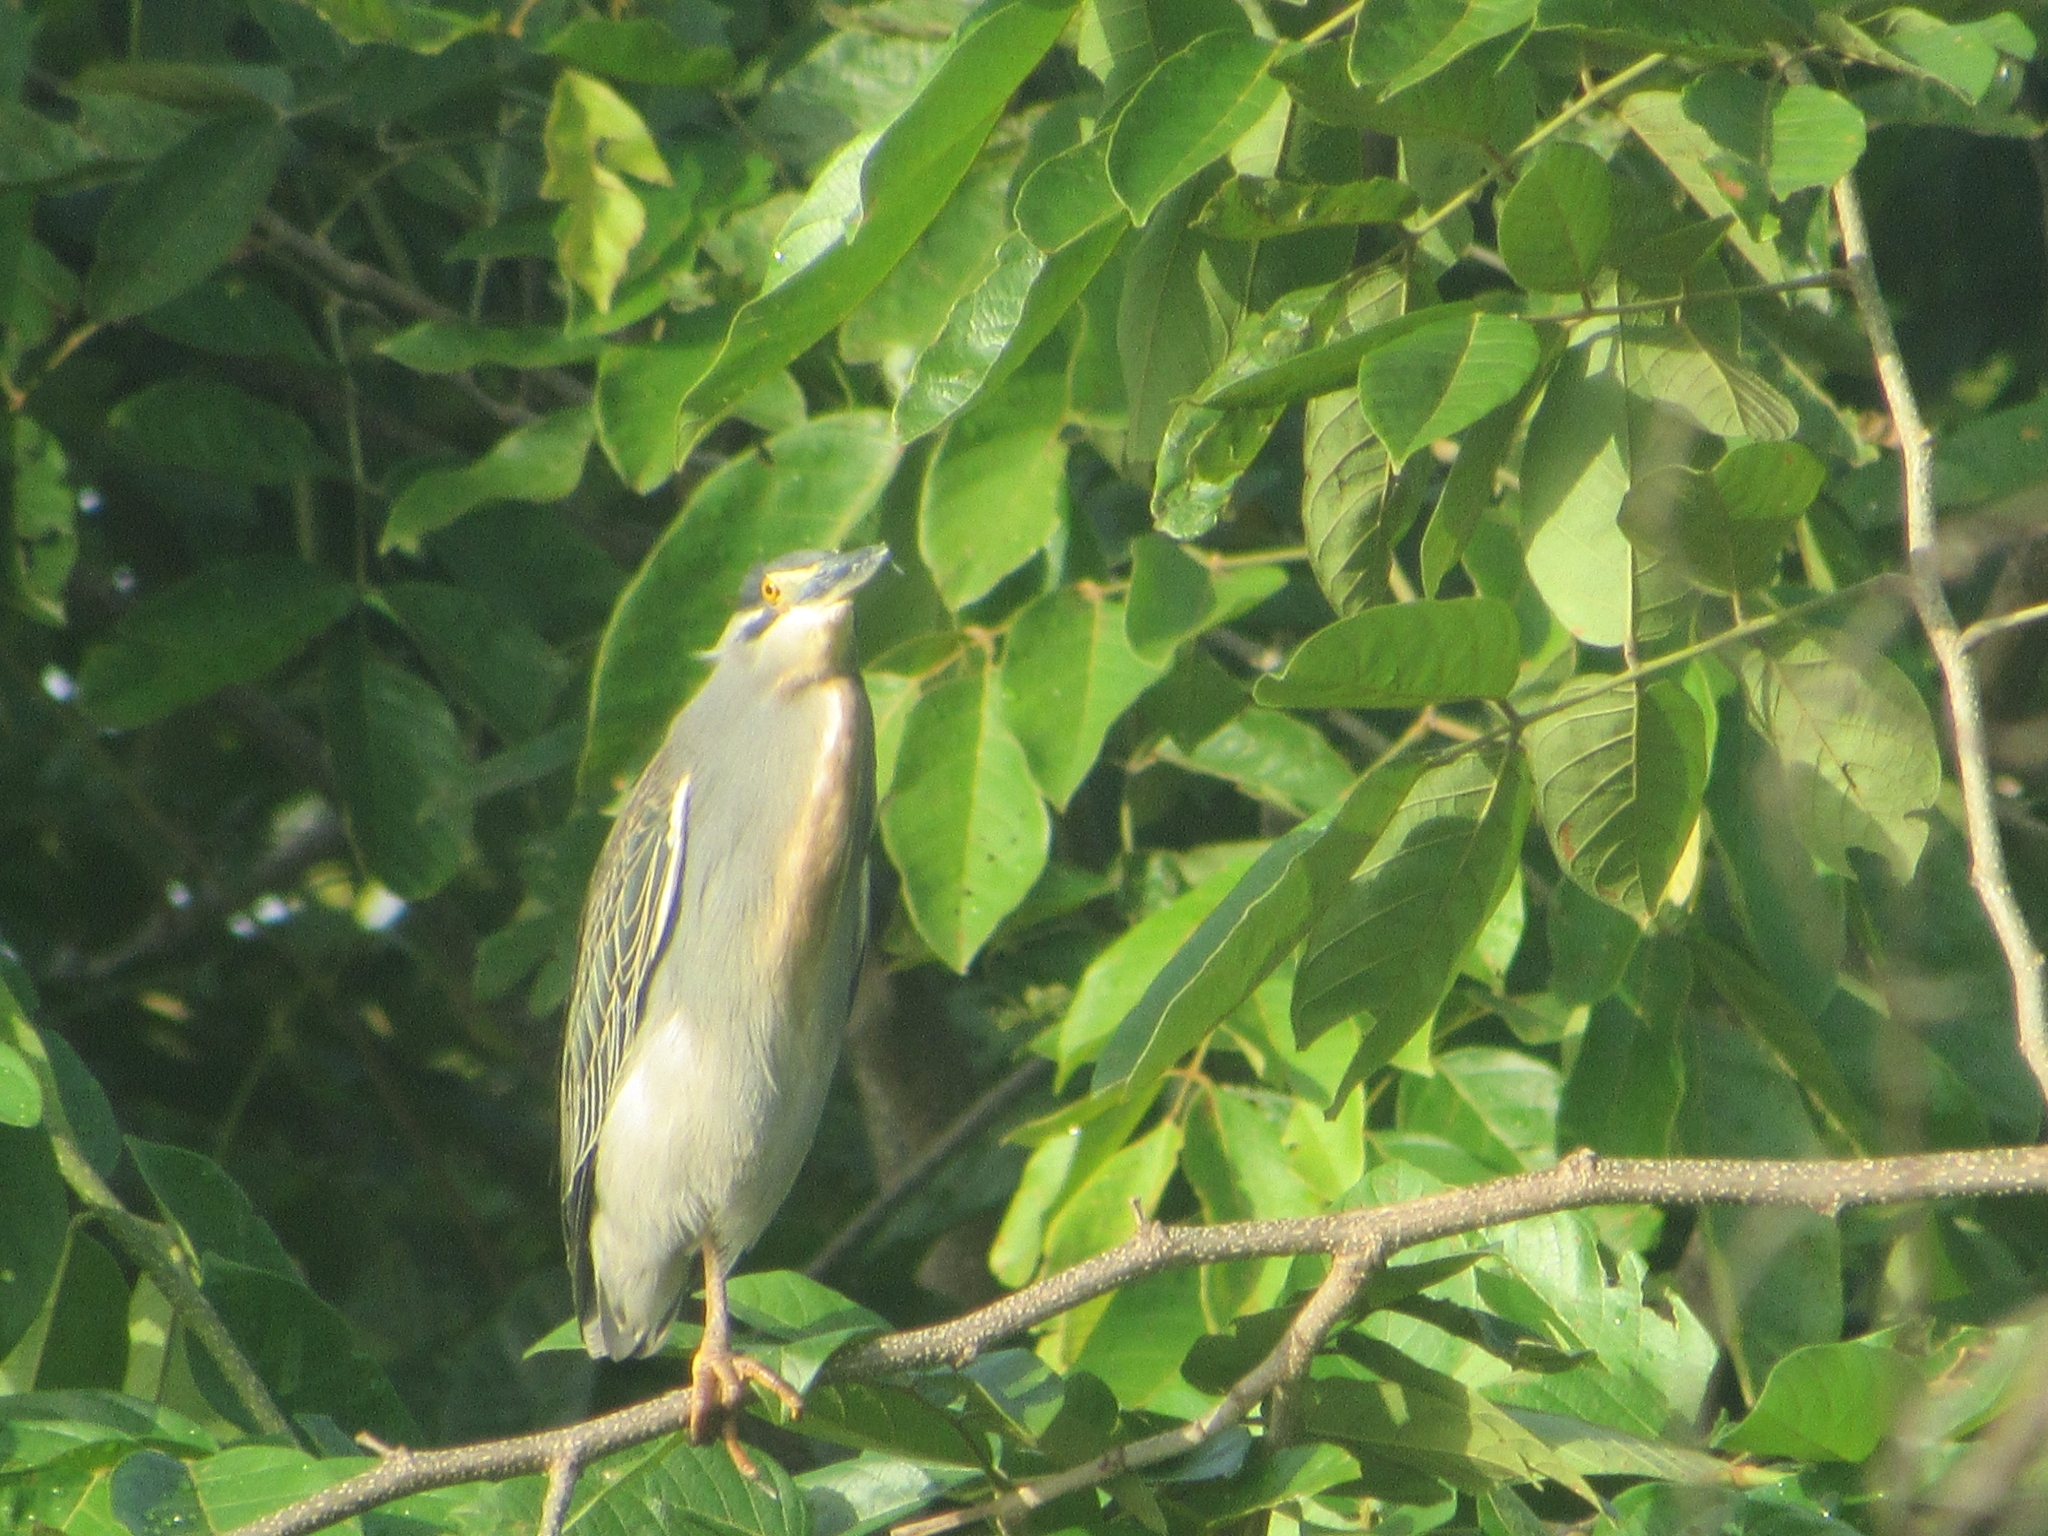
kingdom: Animalia
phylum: Chordata
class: Aves
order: Pelecaniformes
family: Ardeidae
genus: Butorides
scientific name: Butorides striata
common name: Striated heron
